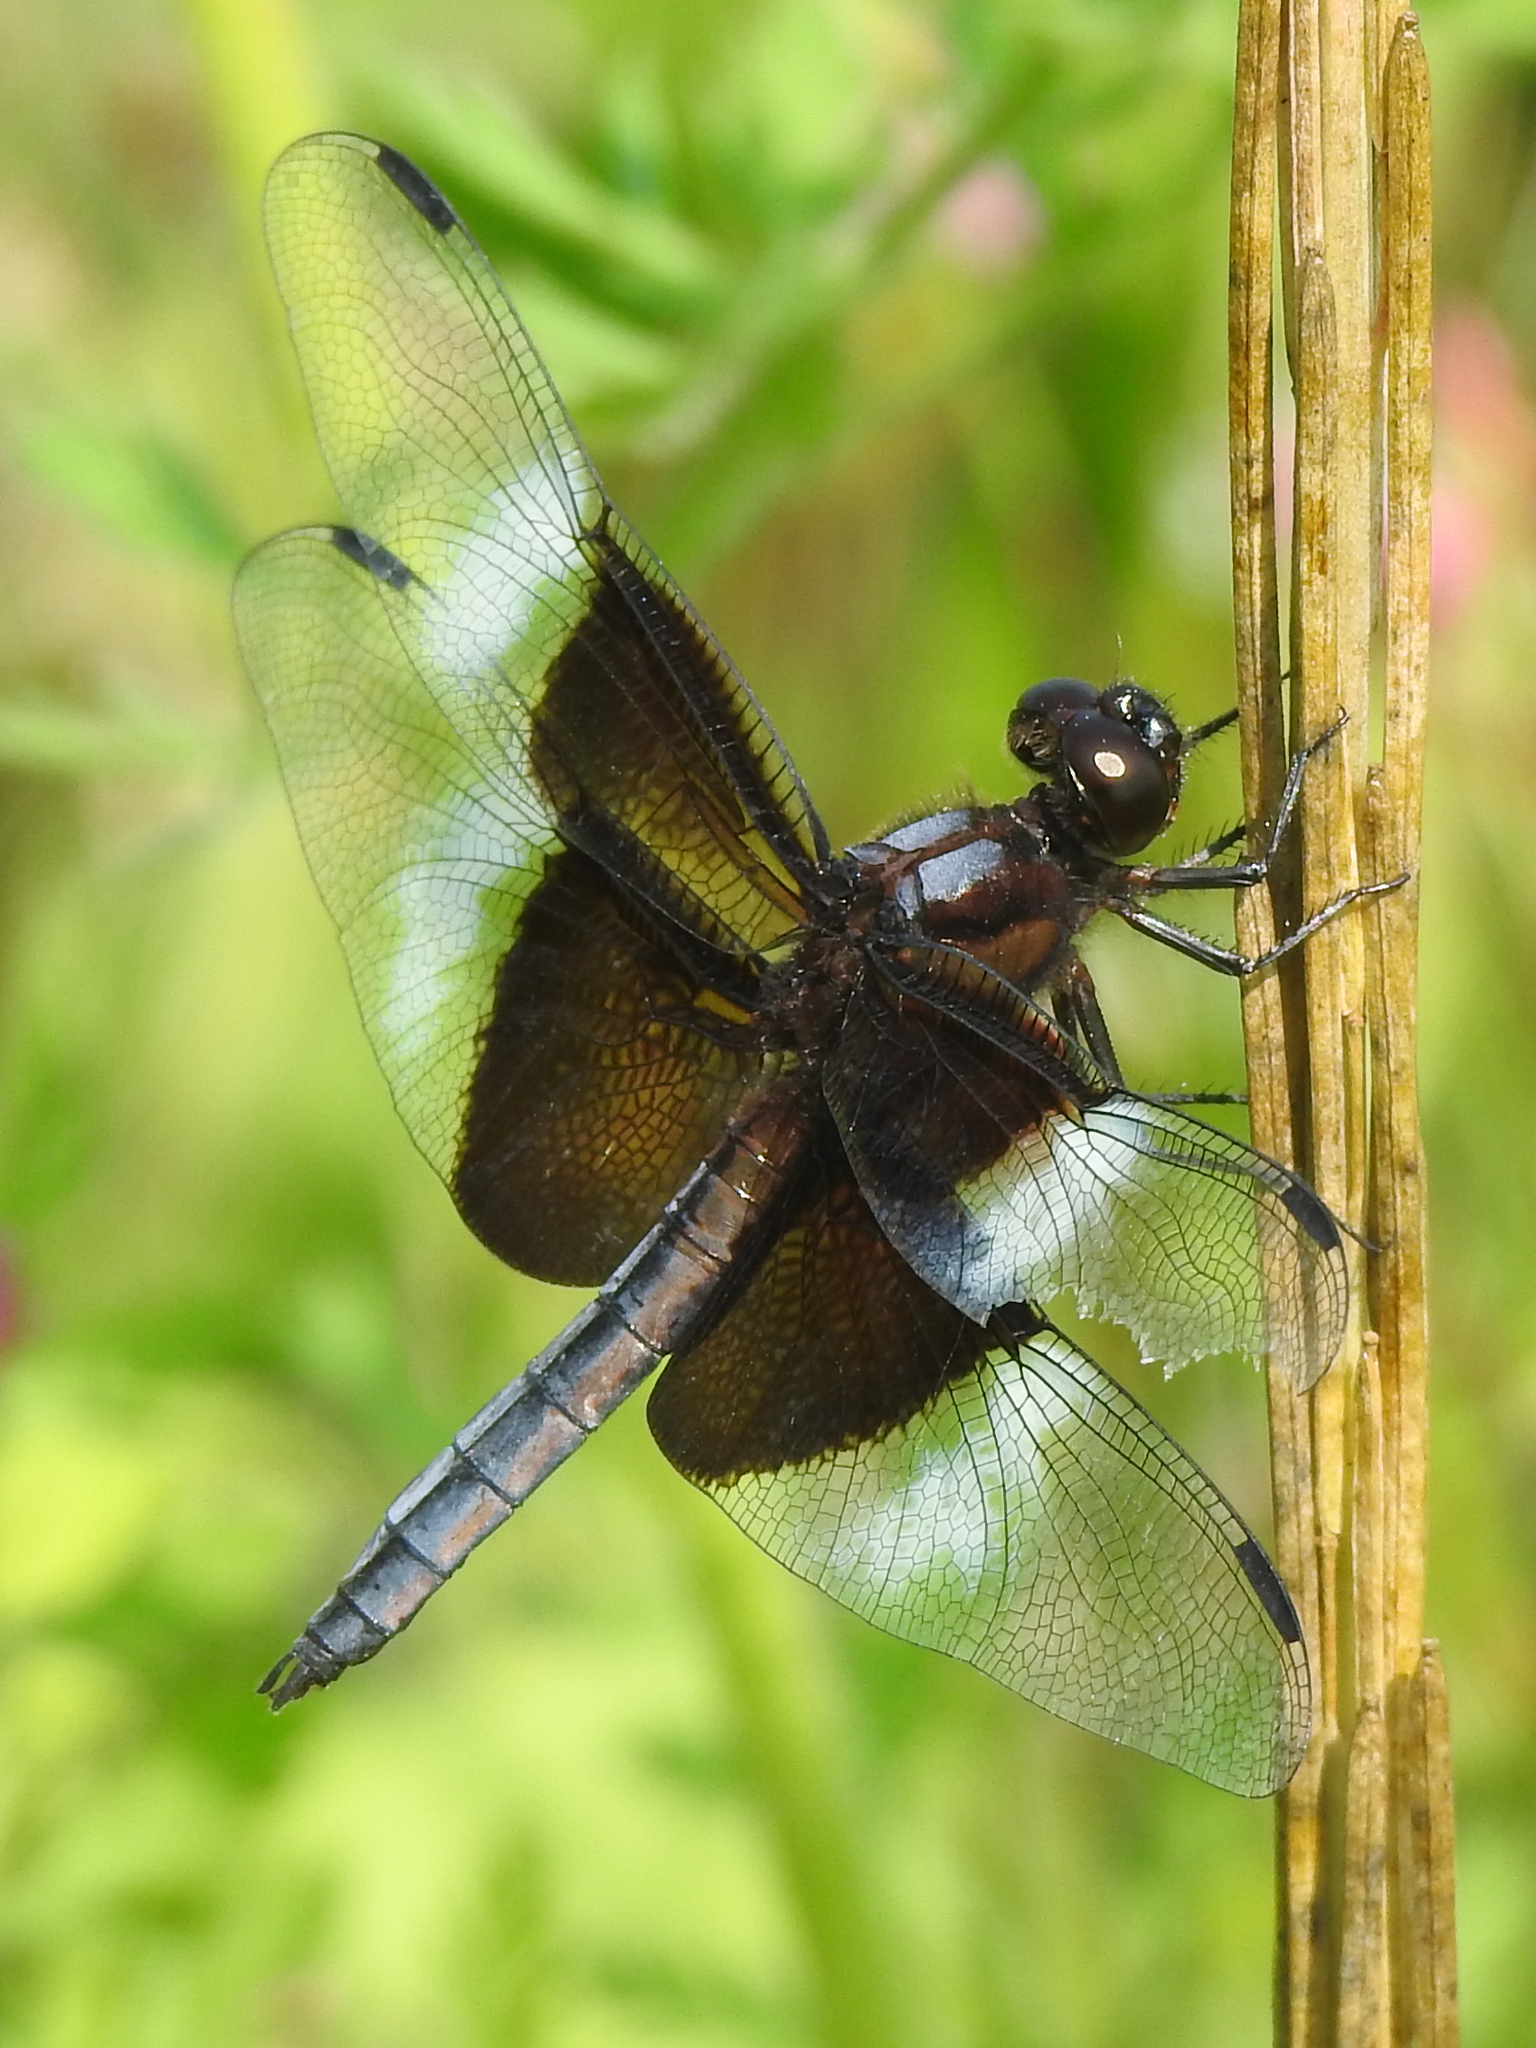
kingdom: Animalia
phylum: Arthropoda
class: Insecta
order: Odonata
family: Libellulidae
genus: Libellula
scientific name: Libellula luctuosa
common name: Widow skimmer
